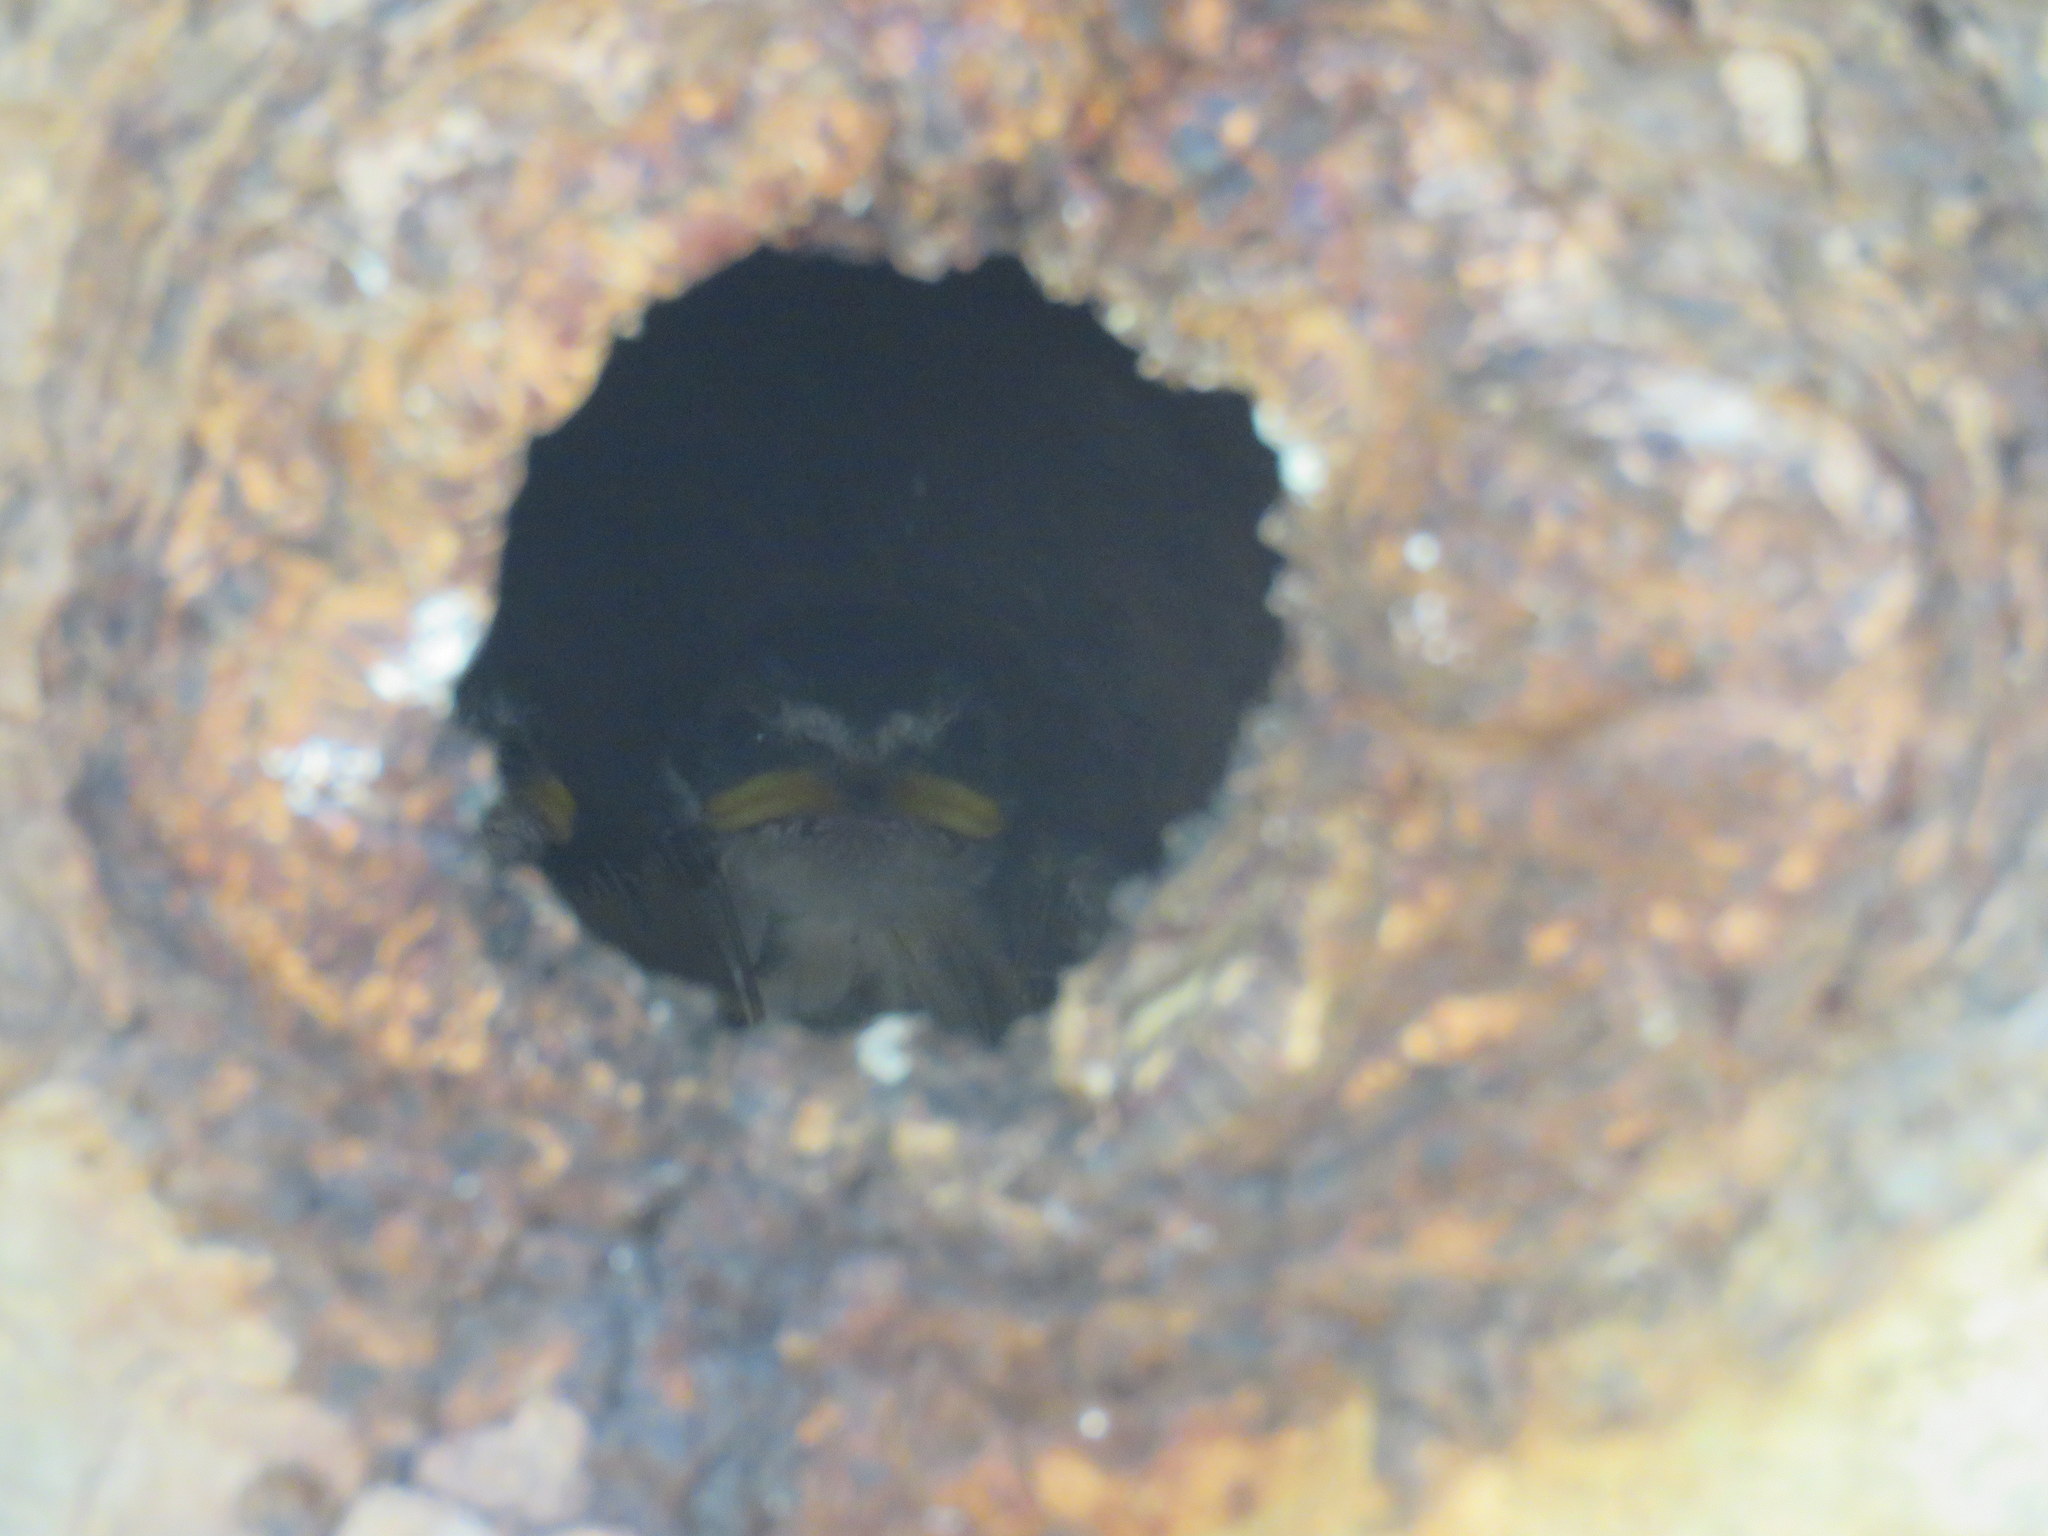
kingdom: Animalia
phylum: Chordata
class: Aves
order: Passeriformes
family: Hirundinidae
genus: Tachycineta
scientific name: Tachycineta leucorrhoa
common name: White-rumped swallow
